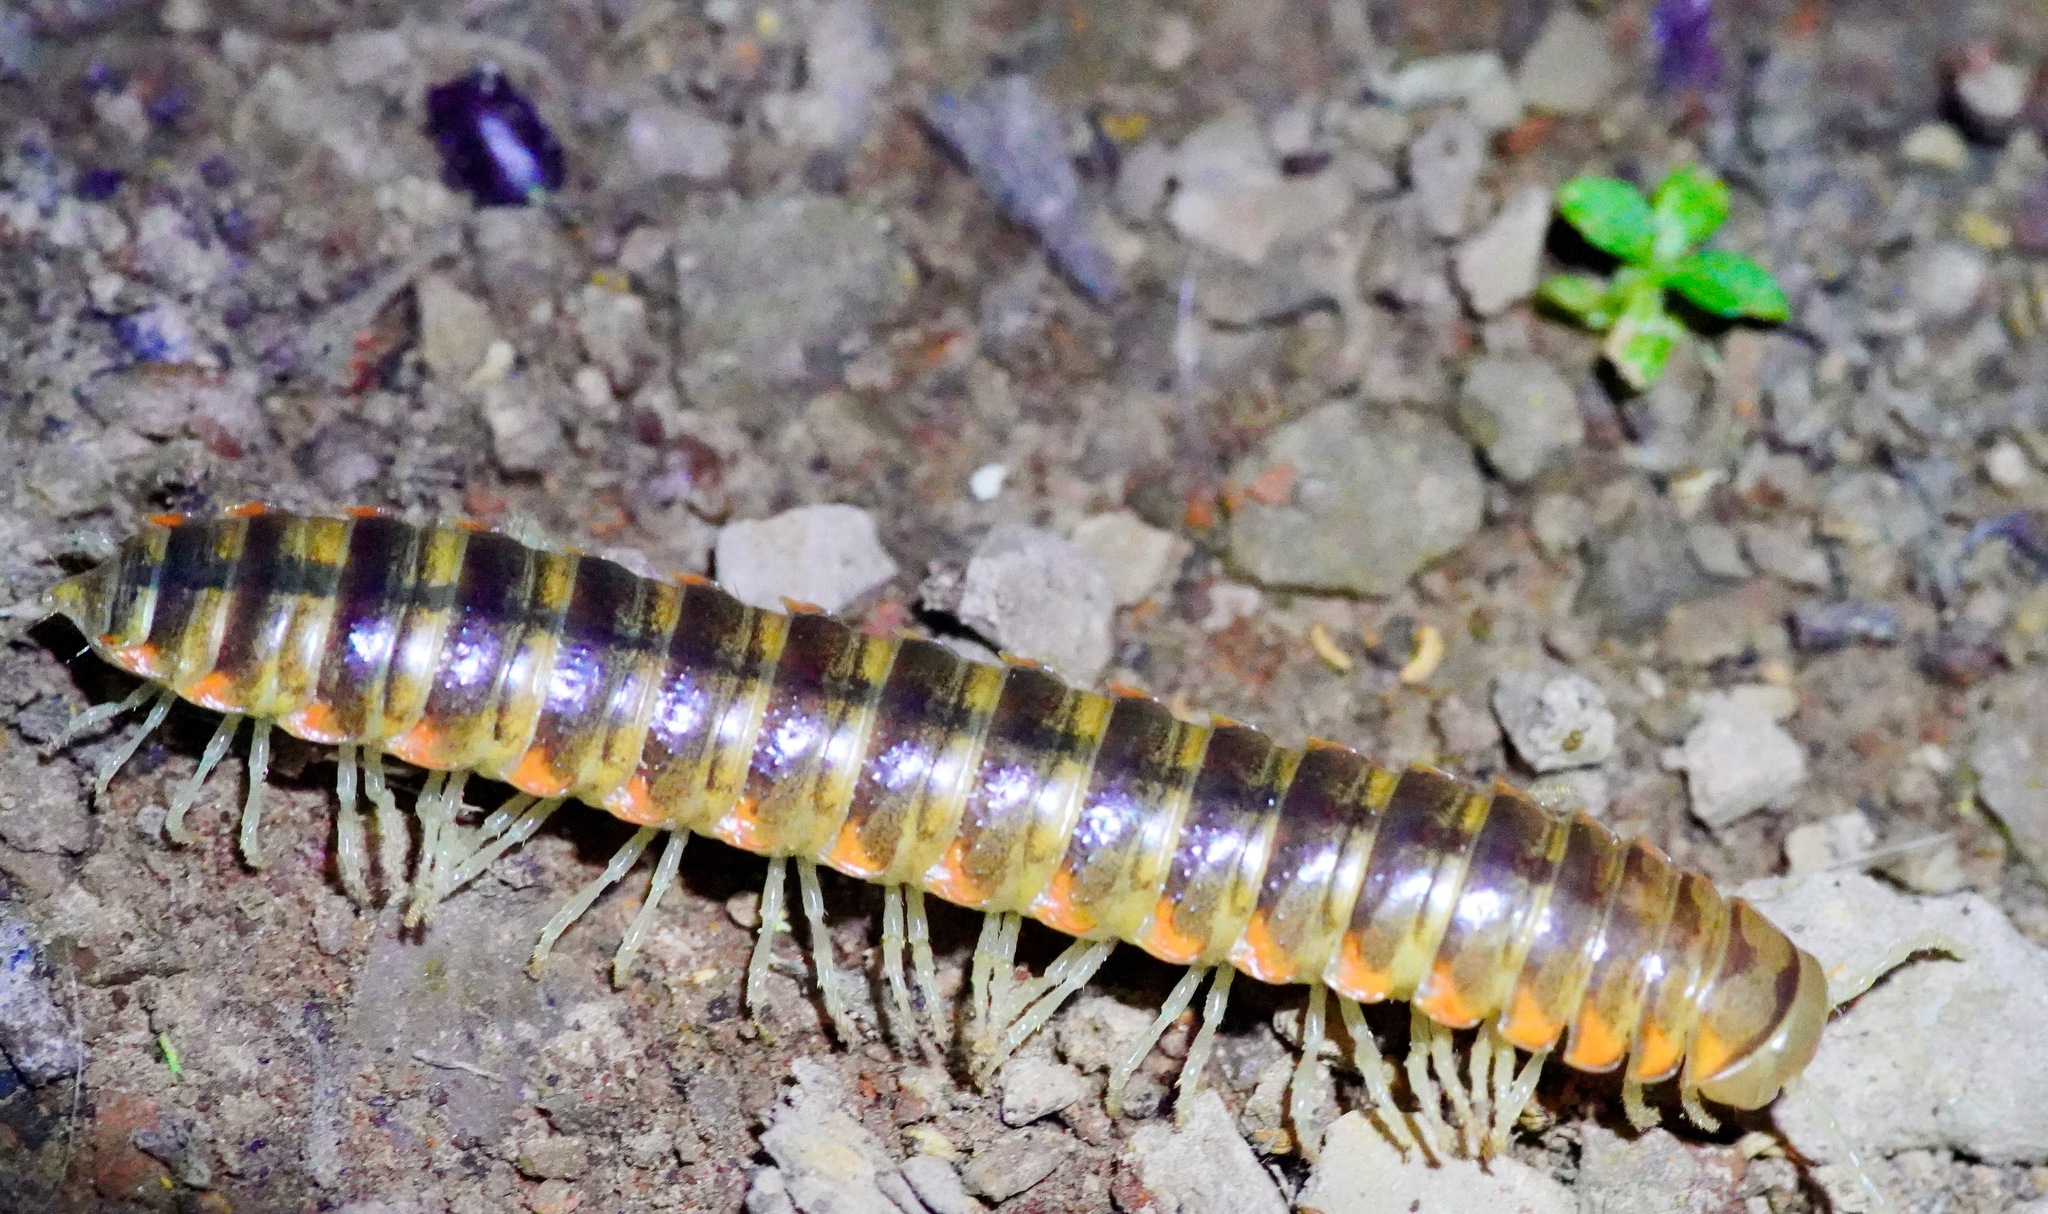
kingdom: Animalia
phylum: Arthropoda
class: Diplopoda
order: Polydesmida
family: Xystodesmidae
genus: Xystocheir
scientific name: Xystocheir dissecta
